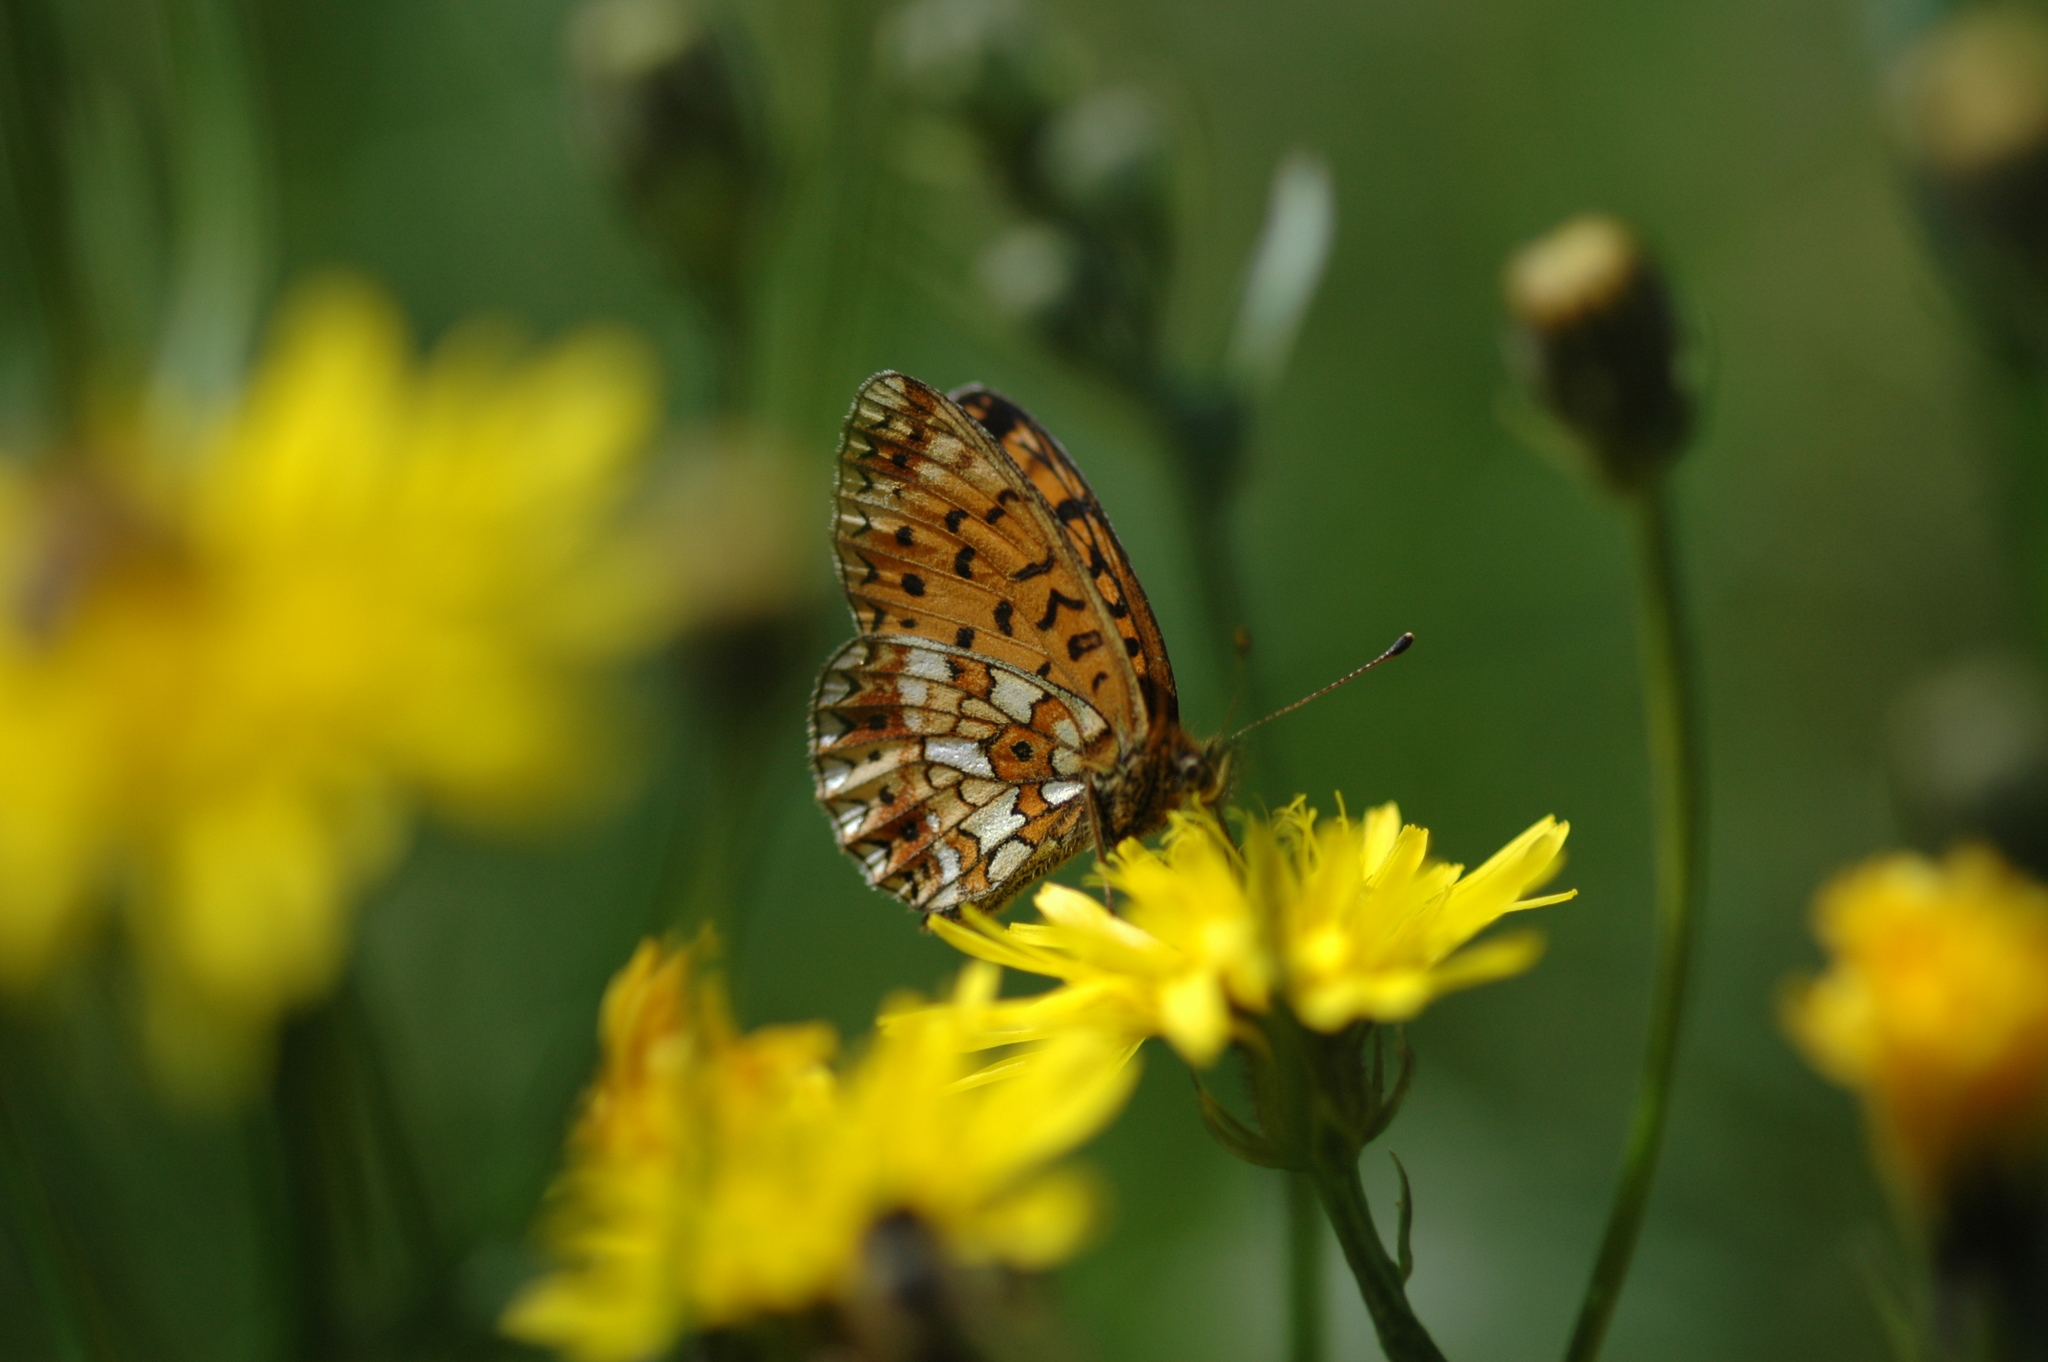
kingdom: Animalia
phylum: Arthropoda
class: Insecta
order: Lepidoptera
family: Nymphalidae
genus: Boloria
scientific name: Boloria selene
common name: Small pearl-bordered fritillary
